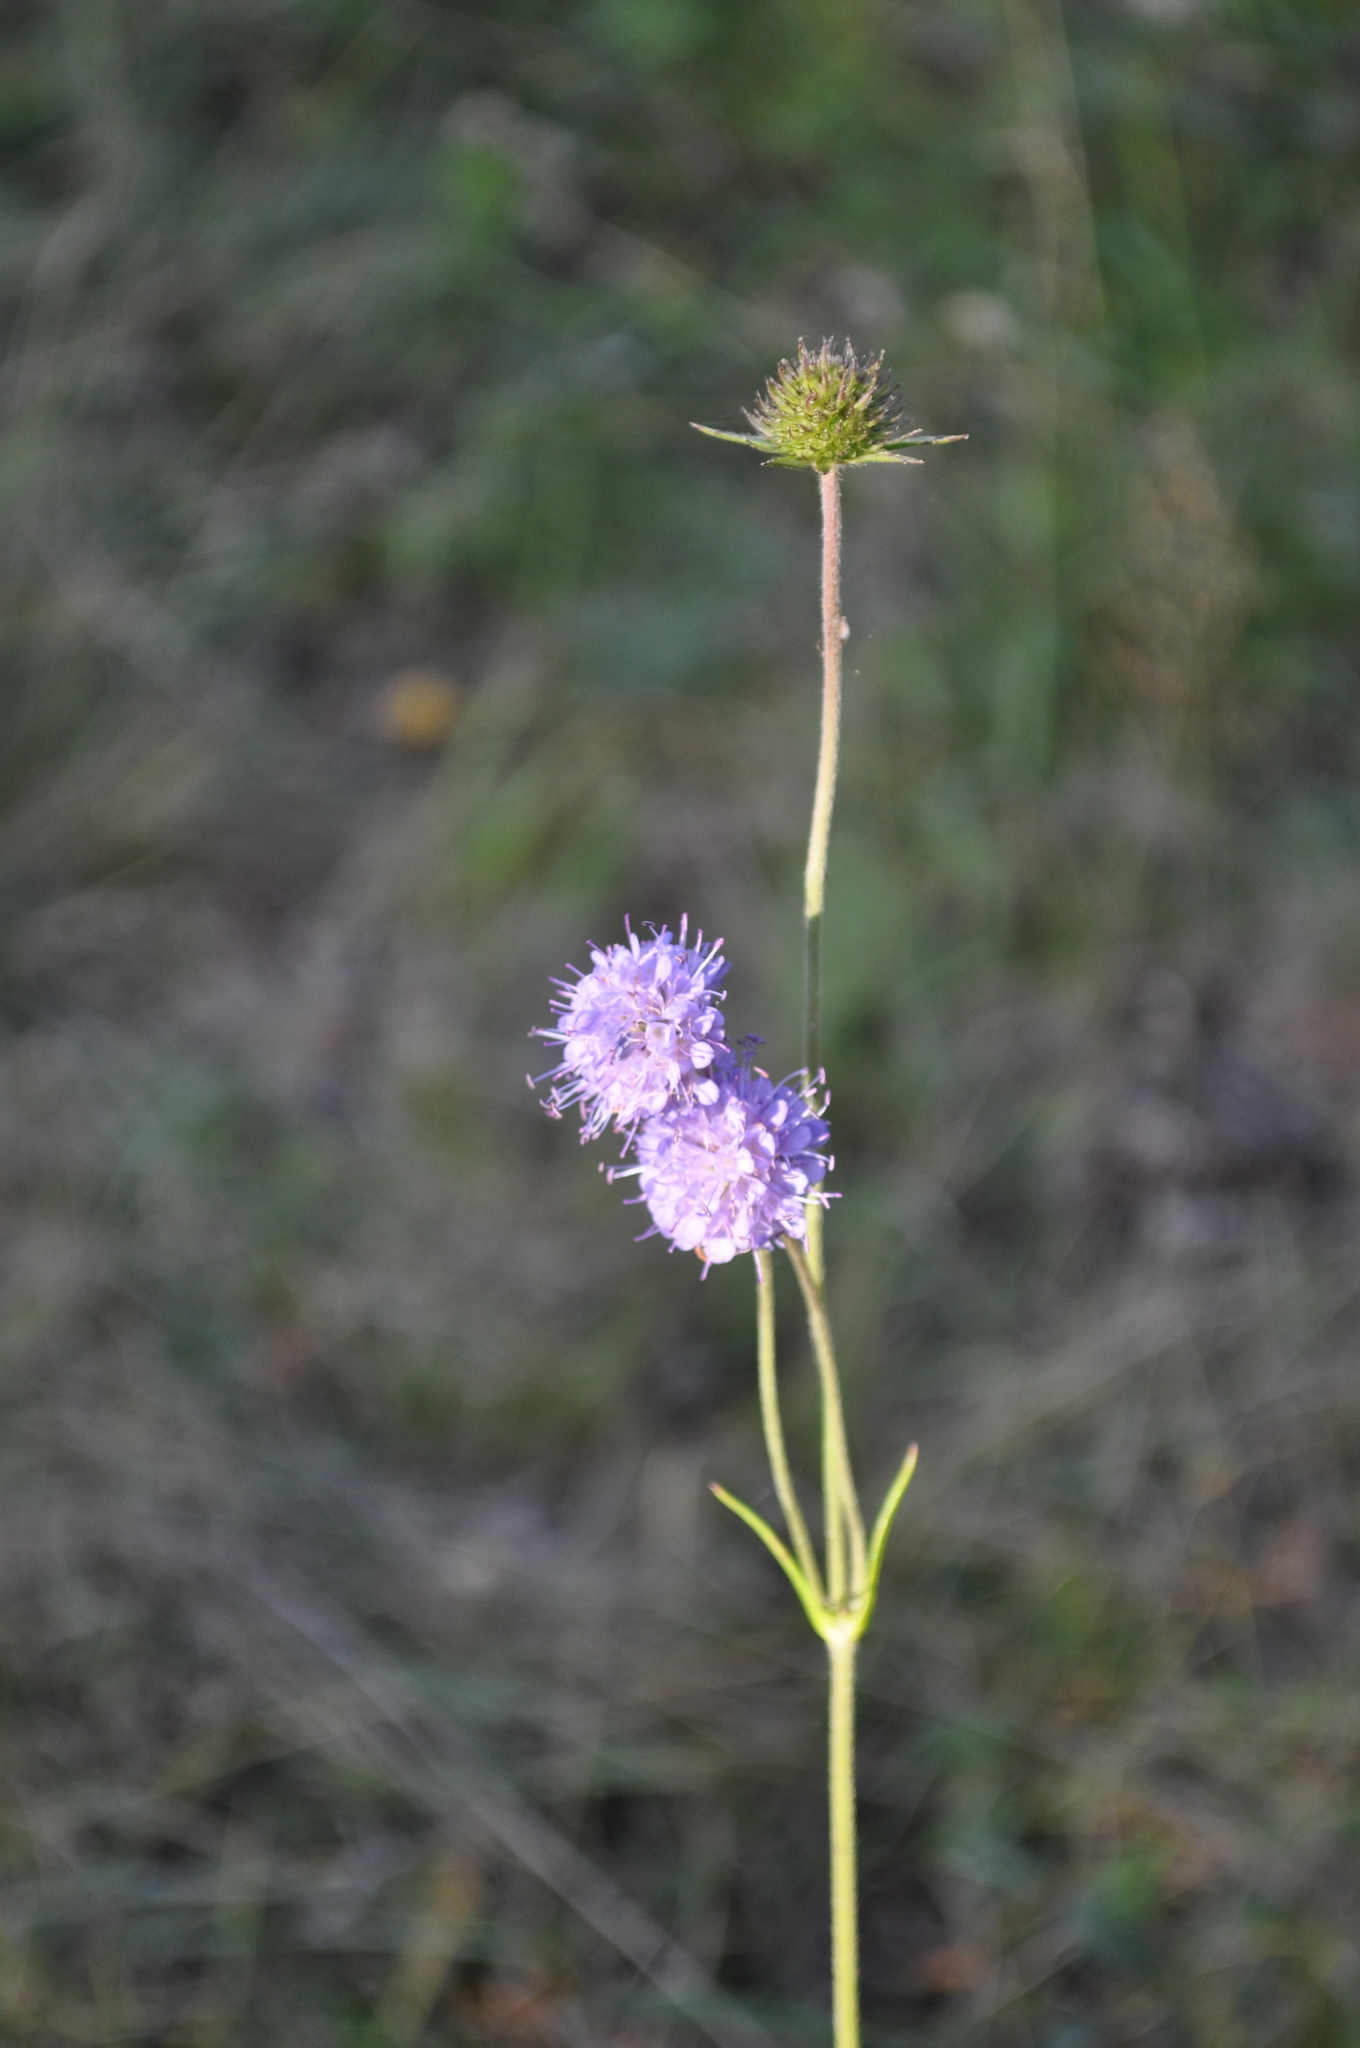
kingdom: Plantae
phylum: Tracheophyta
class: Magnoliopsida
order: Dipsacales
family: Caprifoliaceae
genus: Succisa
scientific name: Succisa pratensis
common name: Devil's-bit
